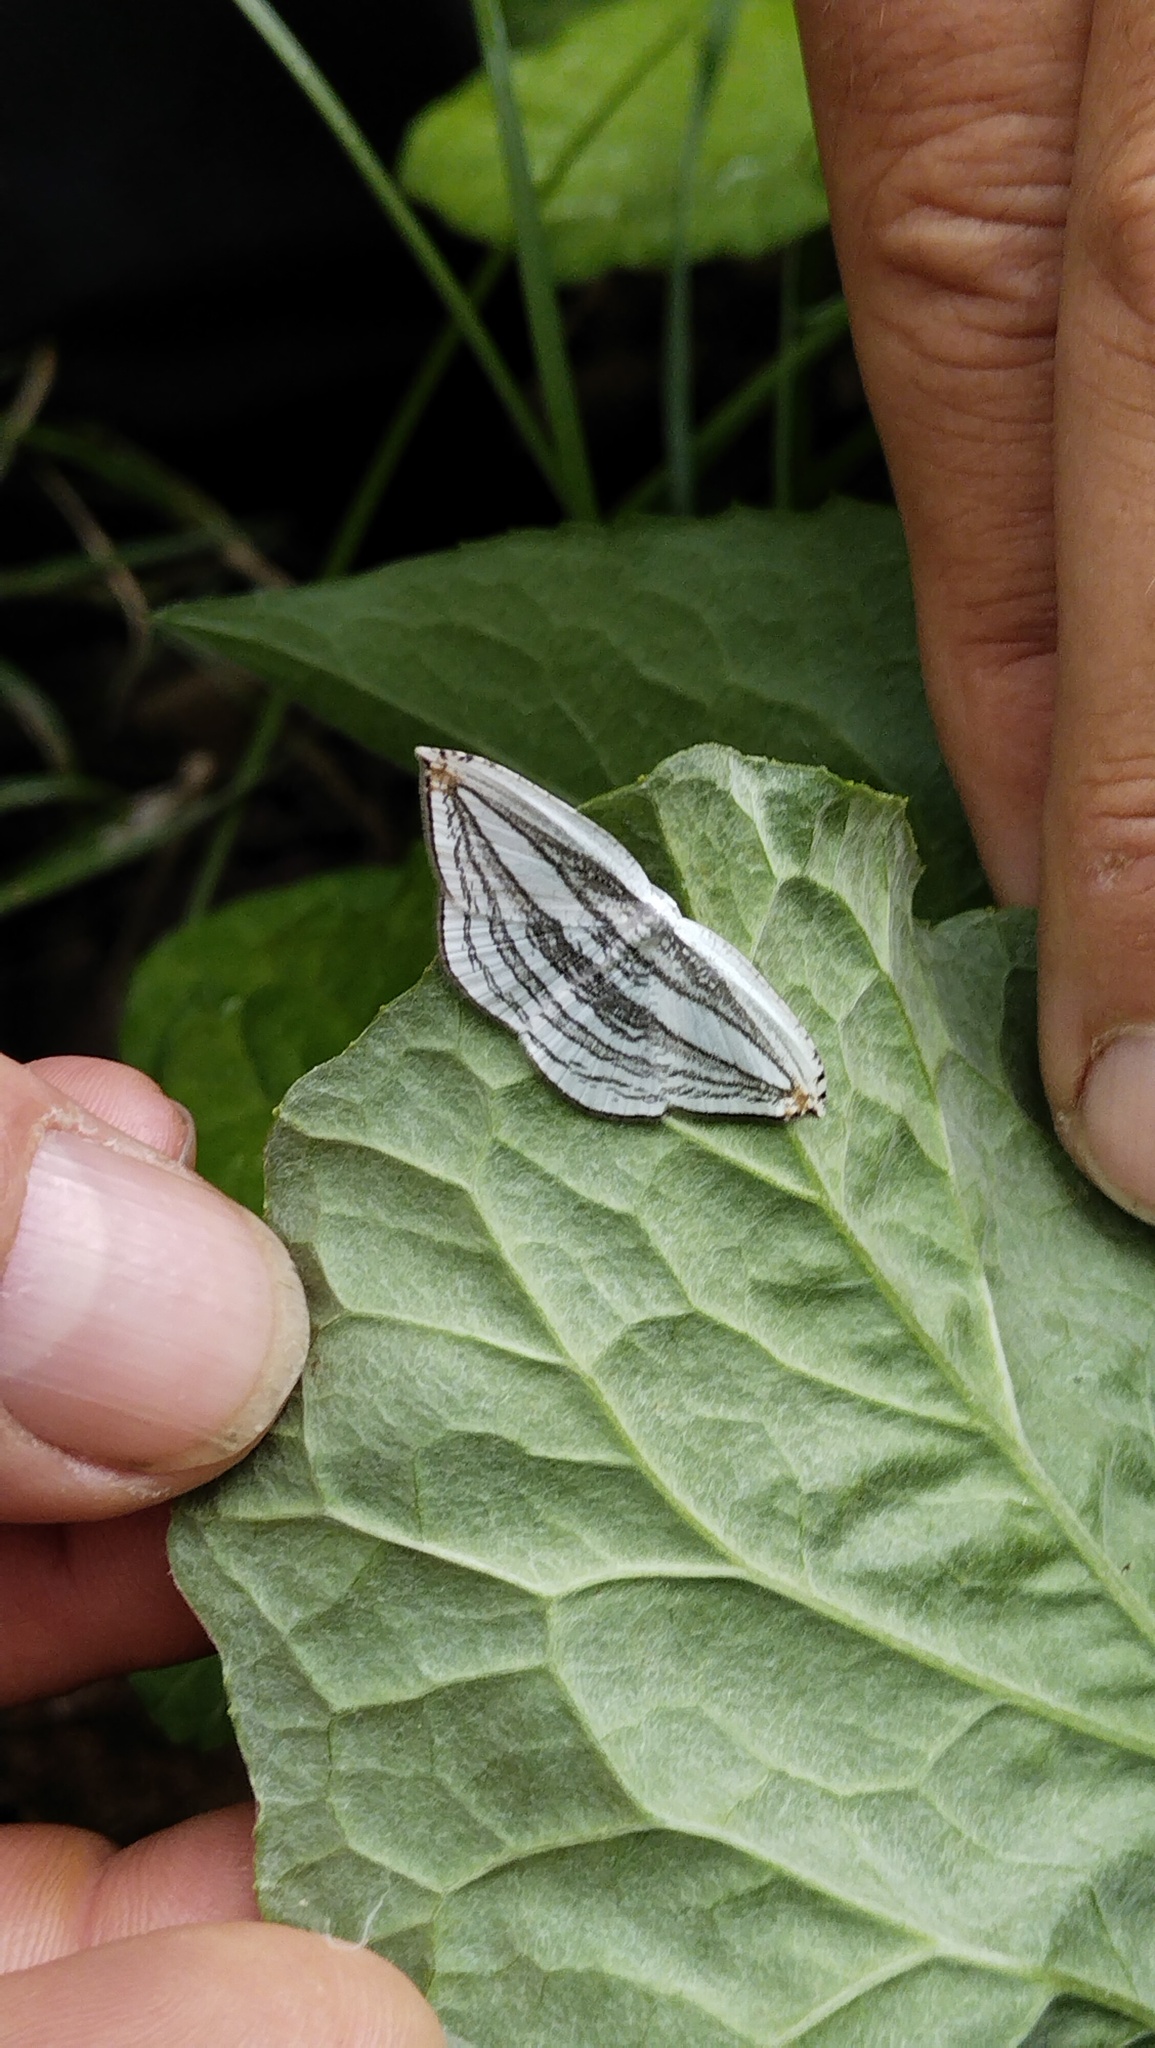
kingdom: Animalia
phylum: Arthropoda
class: Insecta
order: Lepidoptera
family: Uraniidae
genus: Acropteris
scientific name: Acropteris iphiata
